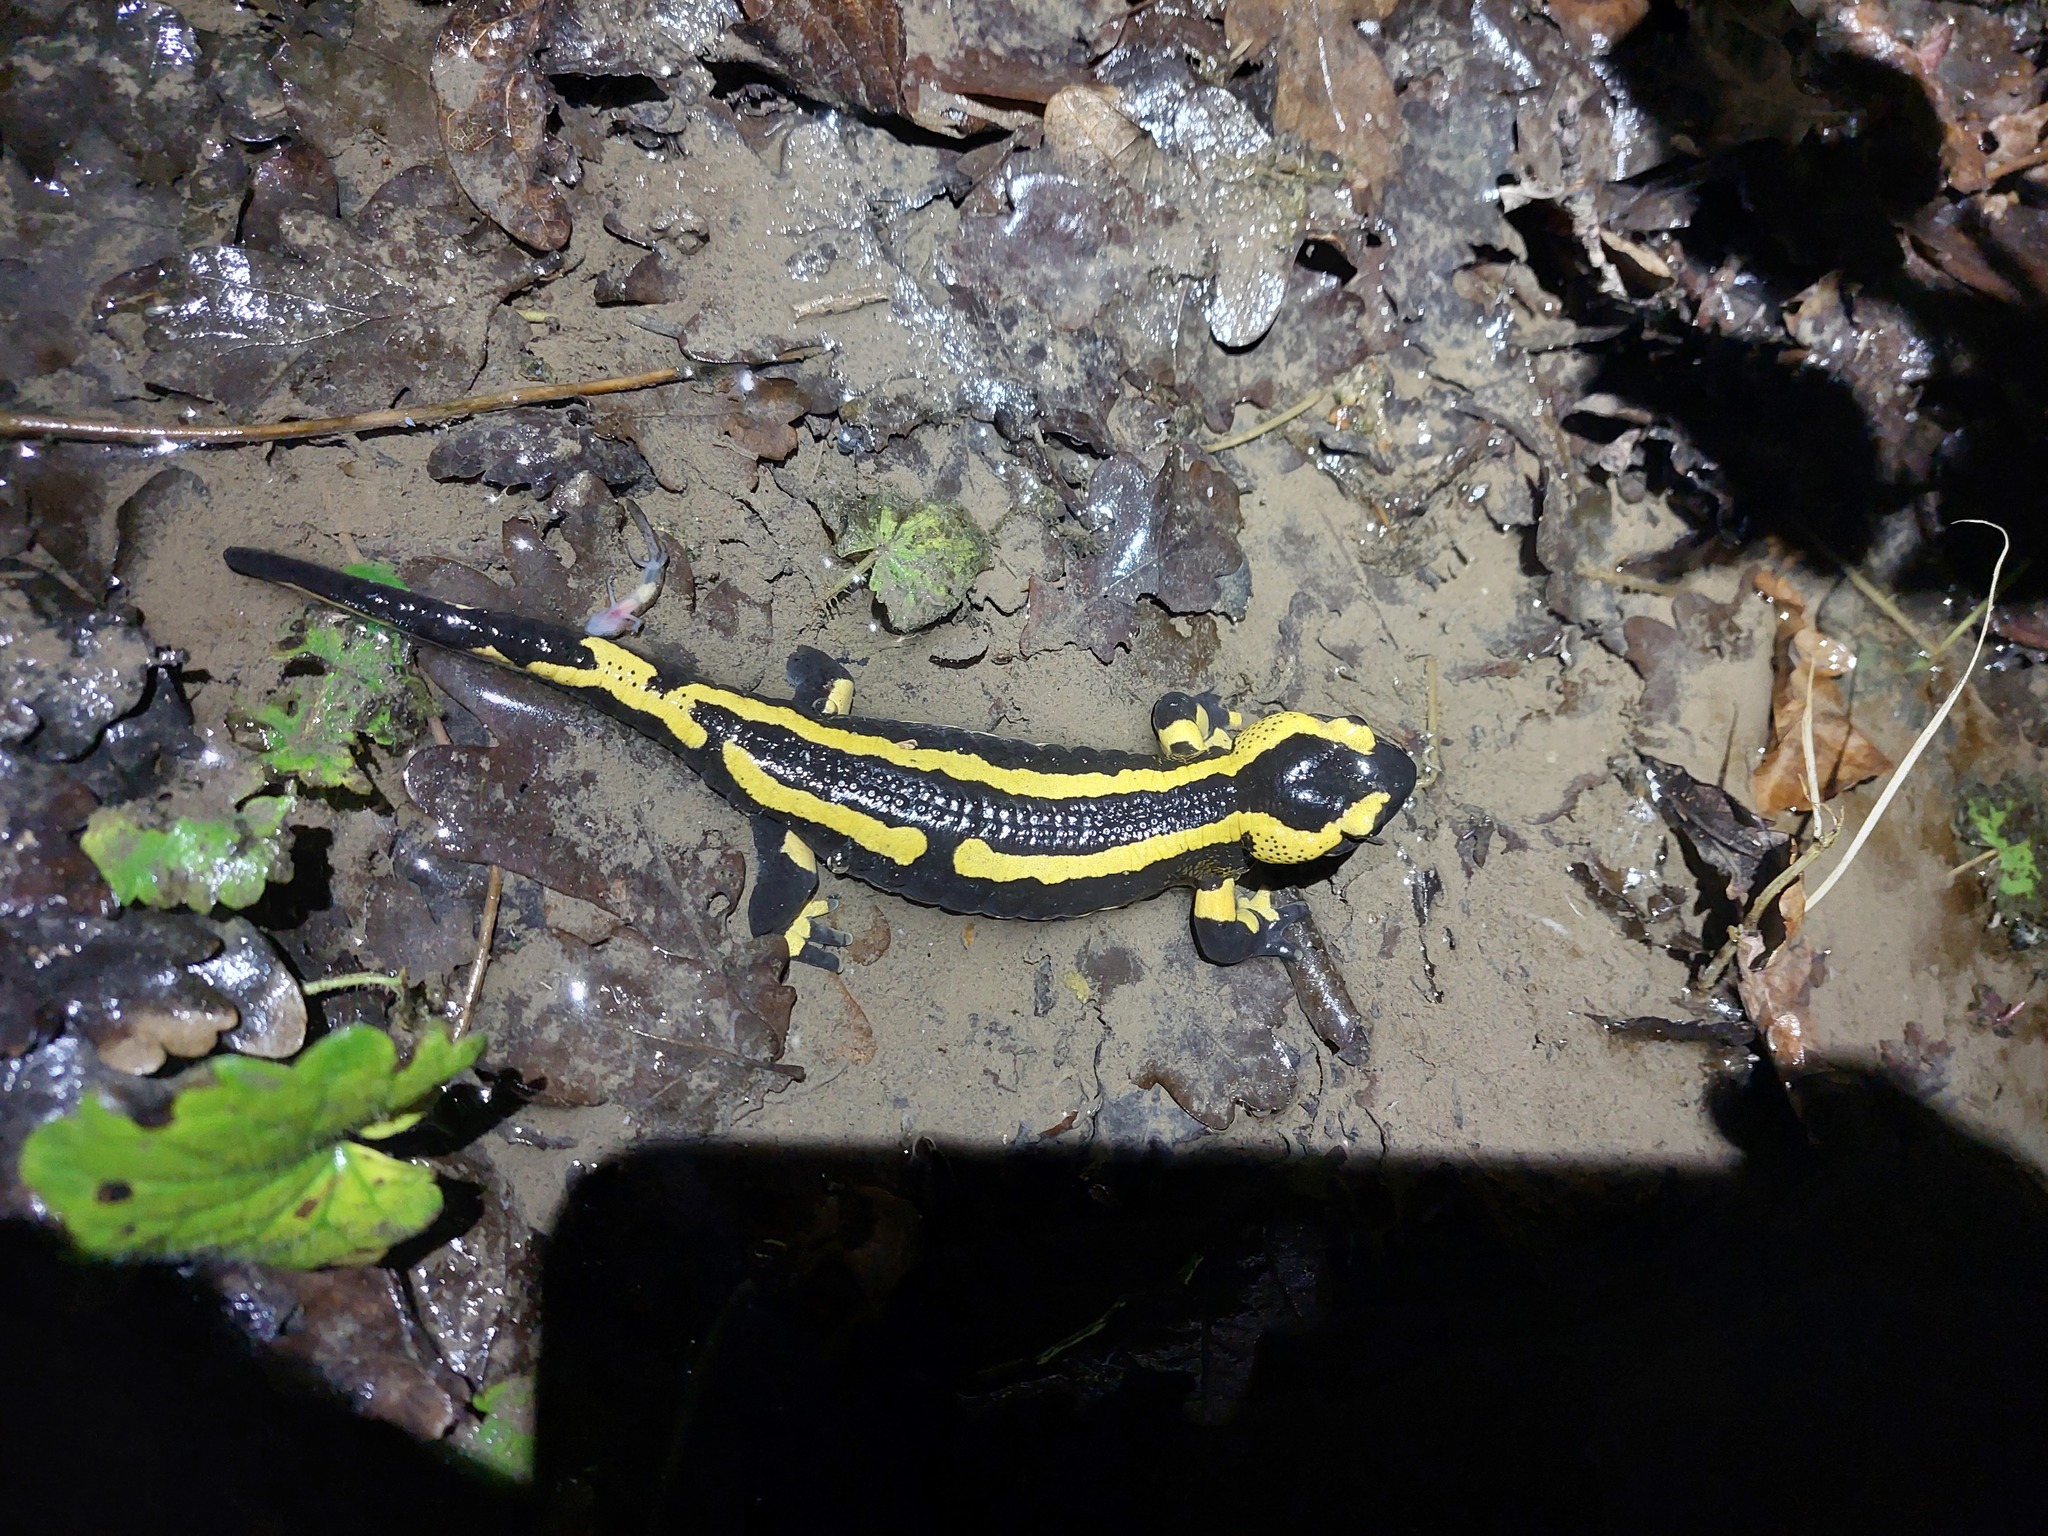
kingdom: Animalia
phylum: Chordata
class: Amphibia
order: Caudata
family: Salamandridae
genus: Salamandra
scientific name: Salamandra salamandra
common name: Fire salamander
